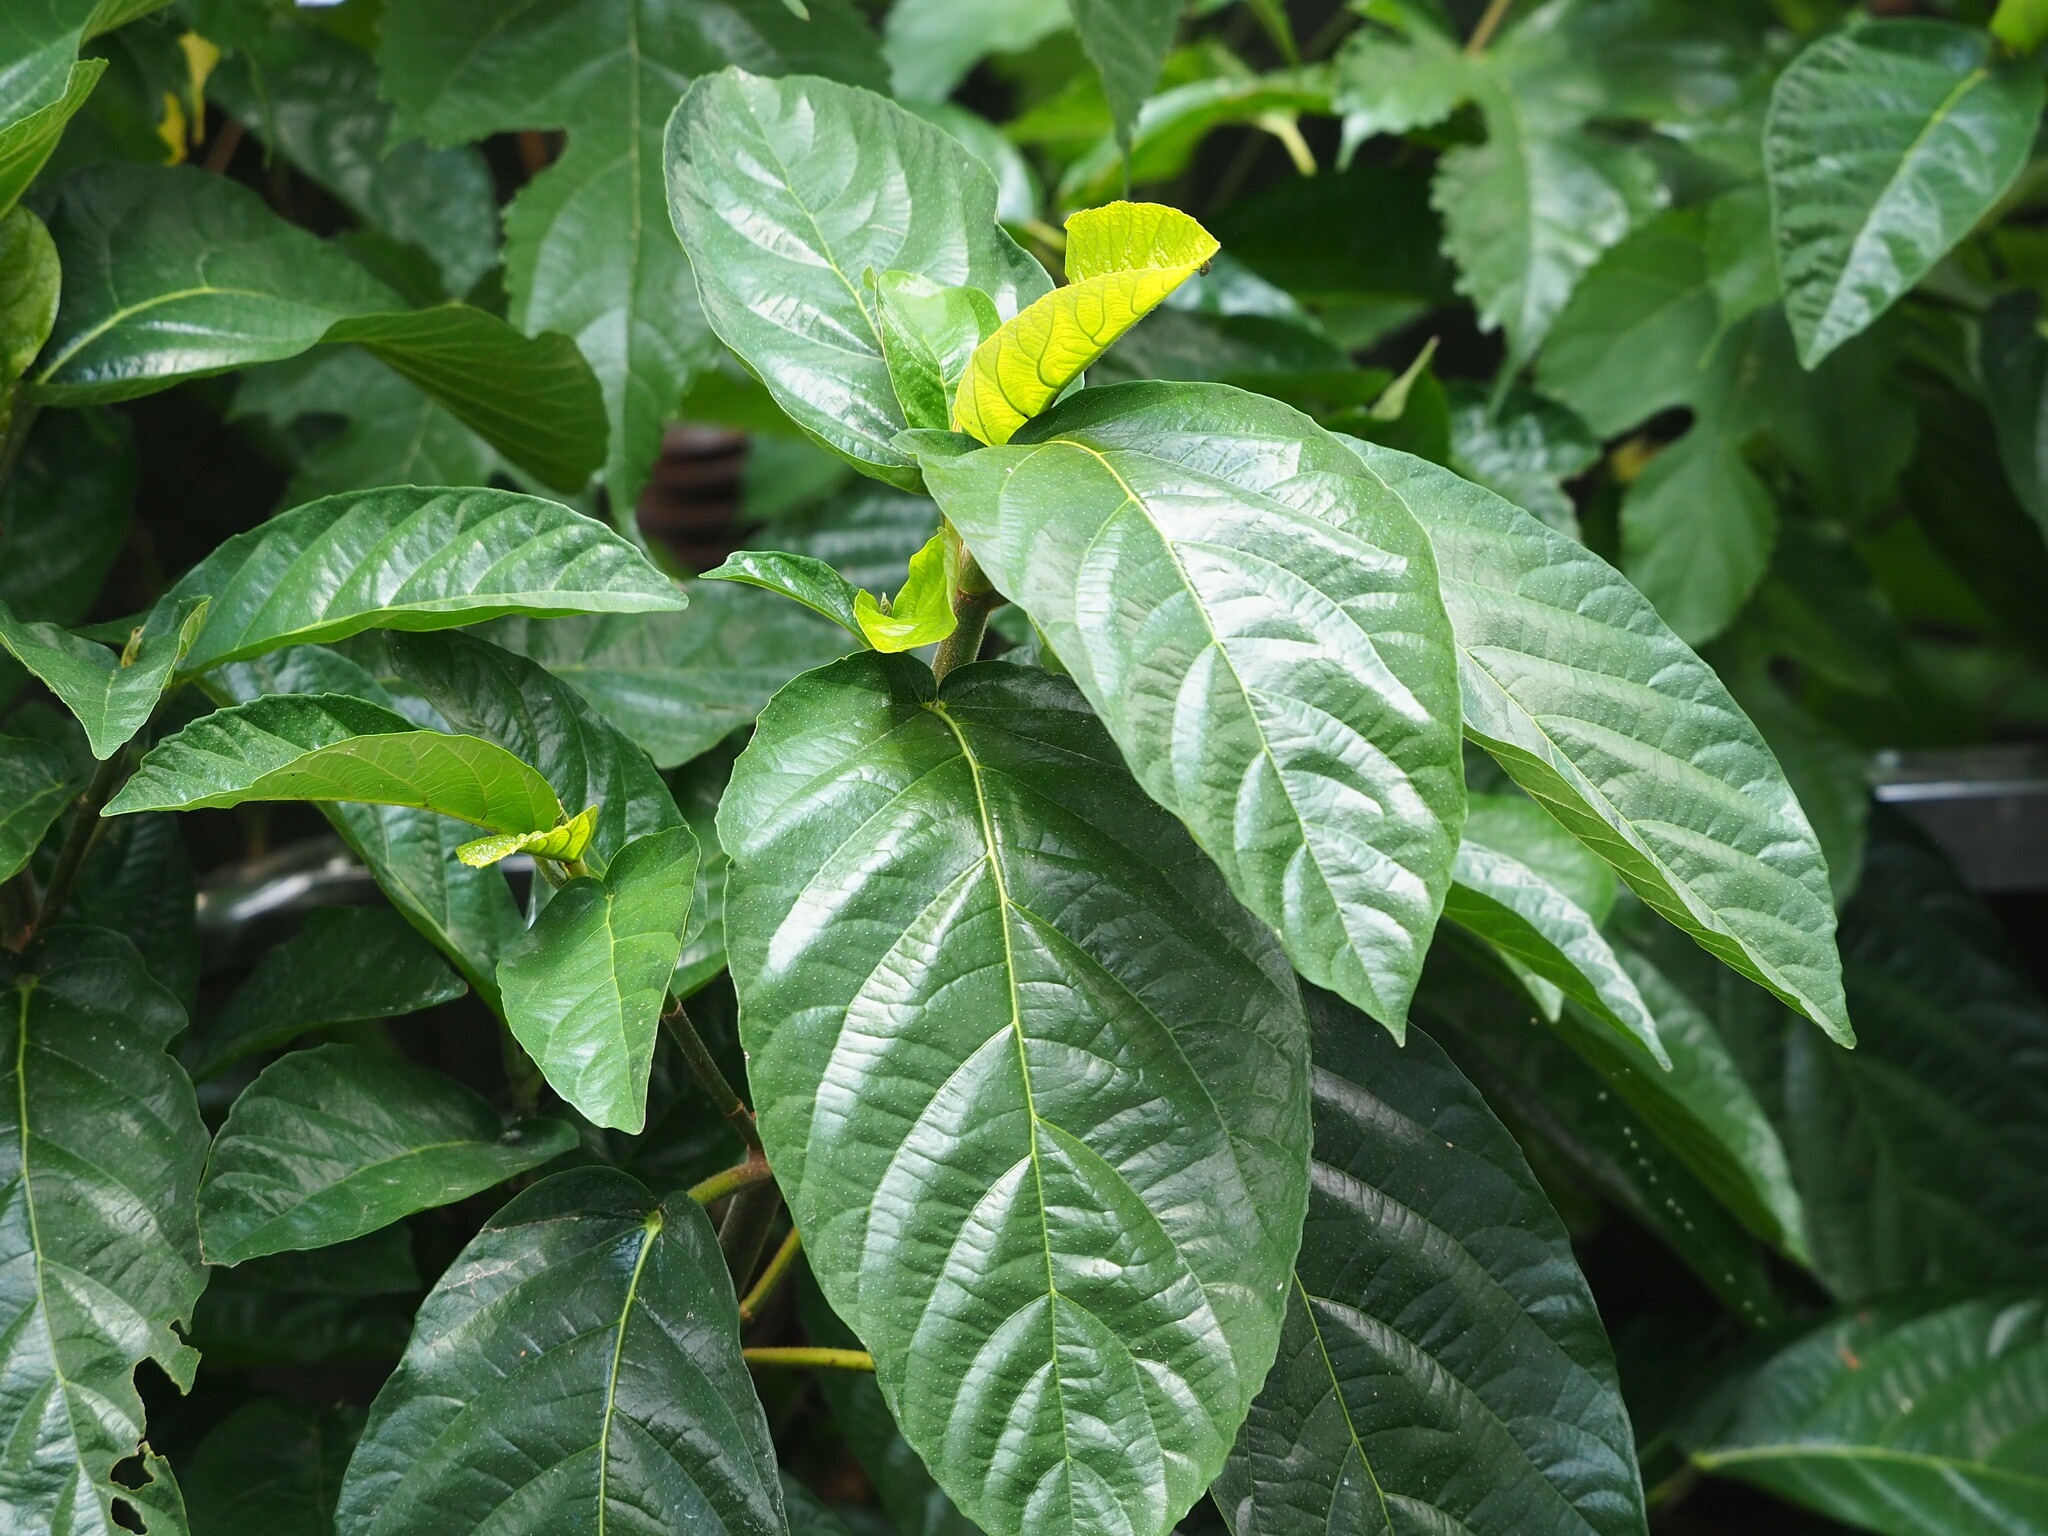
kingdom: Plantae
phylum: Tracheophyta
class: Magnoliopsida
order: Rosales
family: Moraceae
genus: Ficus
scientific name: Ficus benguetensis
